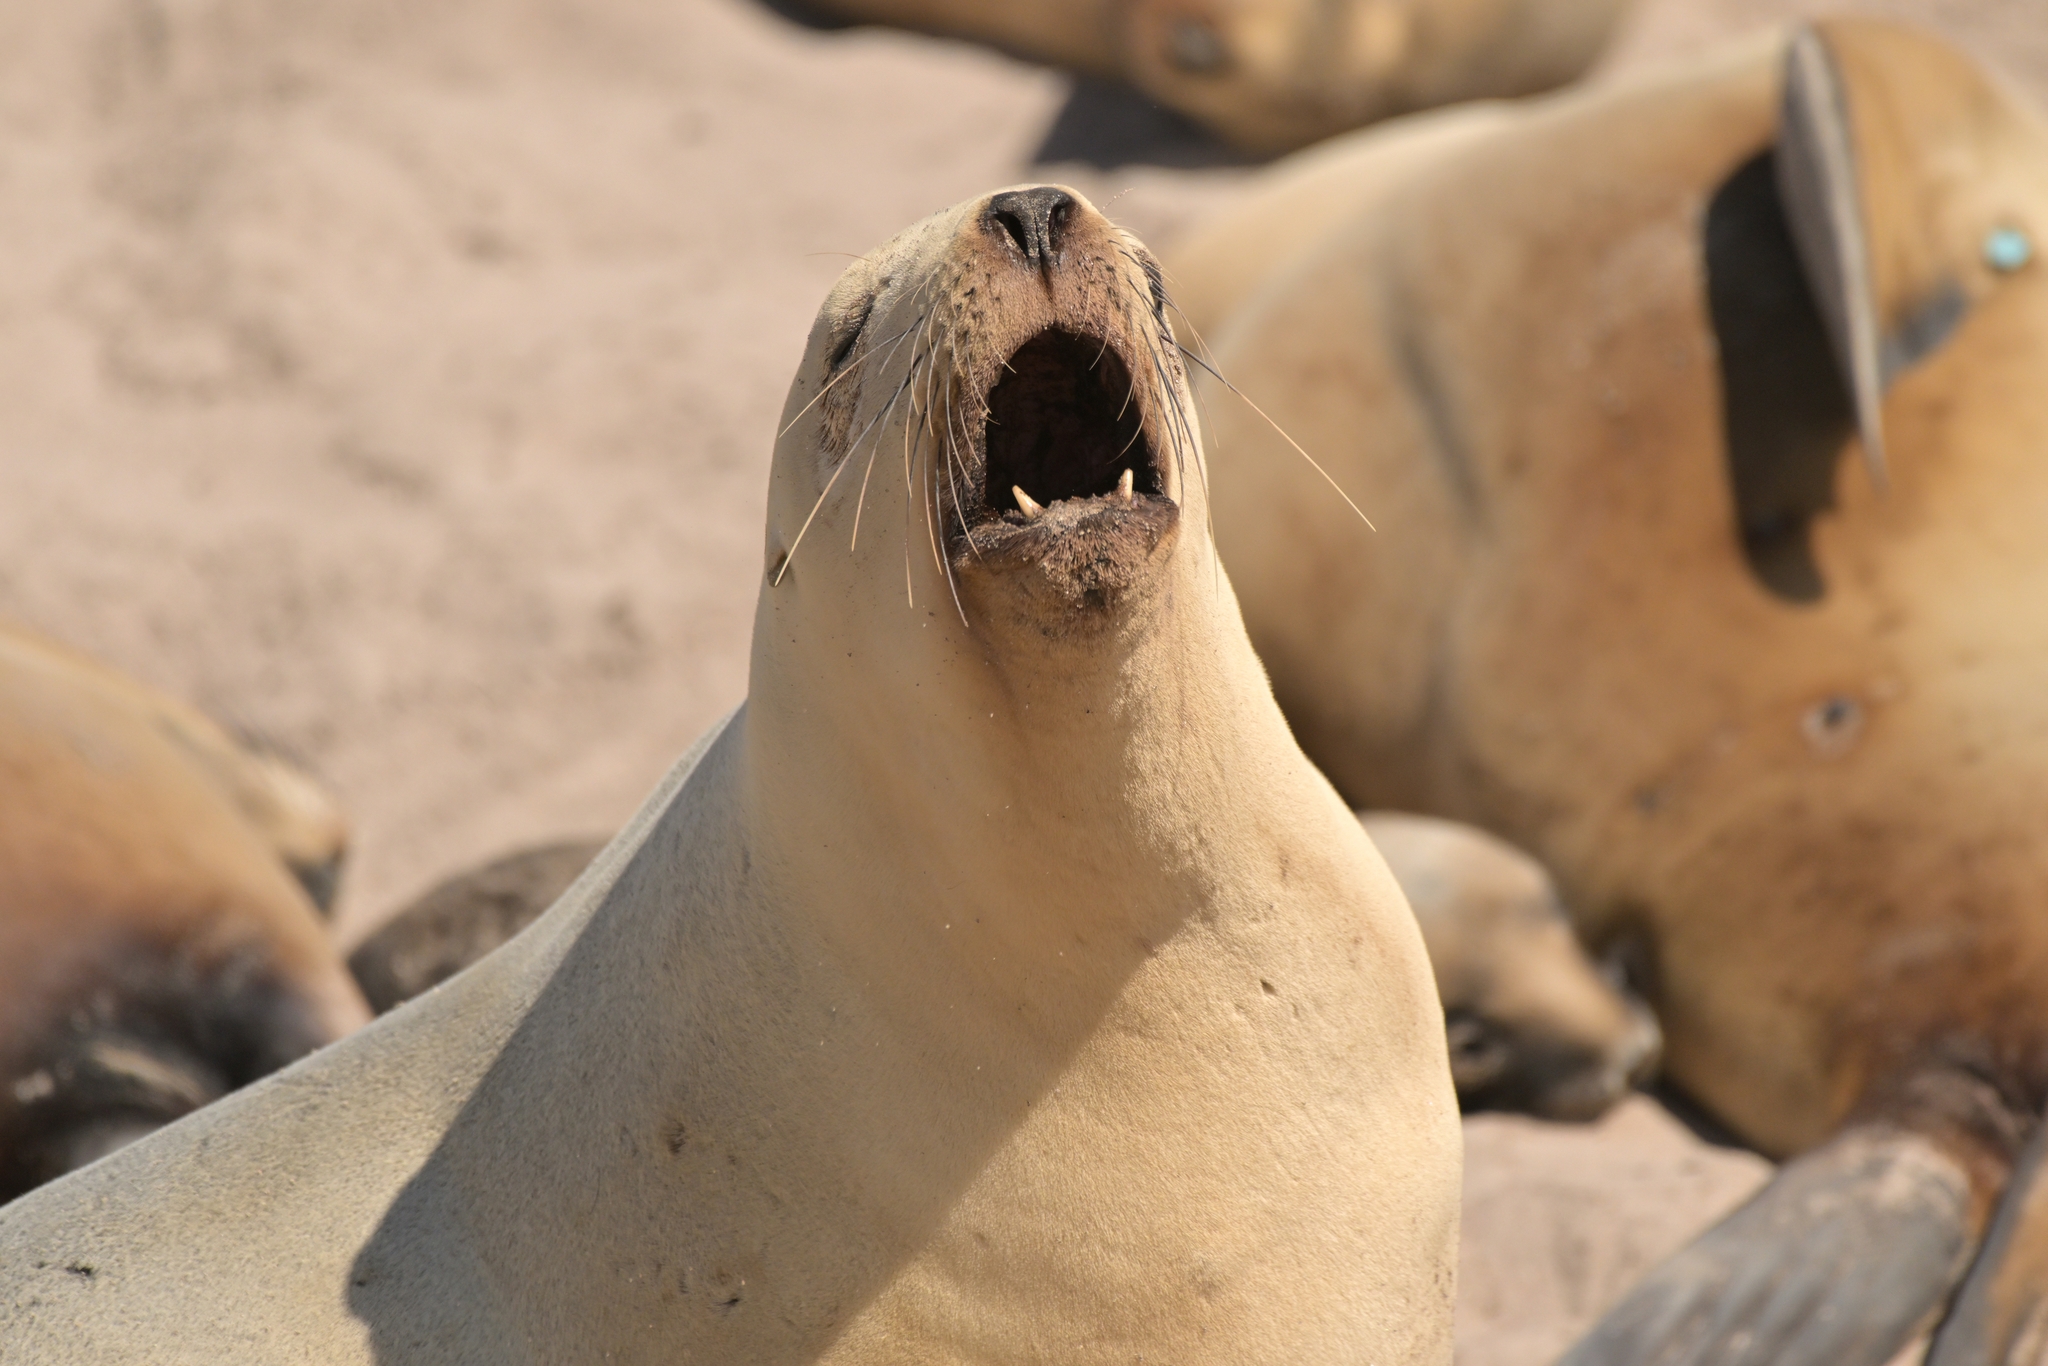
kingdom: Animalia
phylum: Chordata
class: Mammalia
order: Carnivora
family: Otariidae
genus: Phocarctos
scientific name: Phocarctos hookeri
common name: New zealand sea lion
